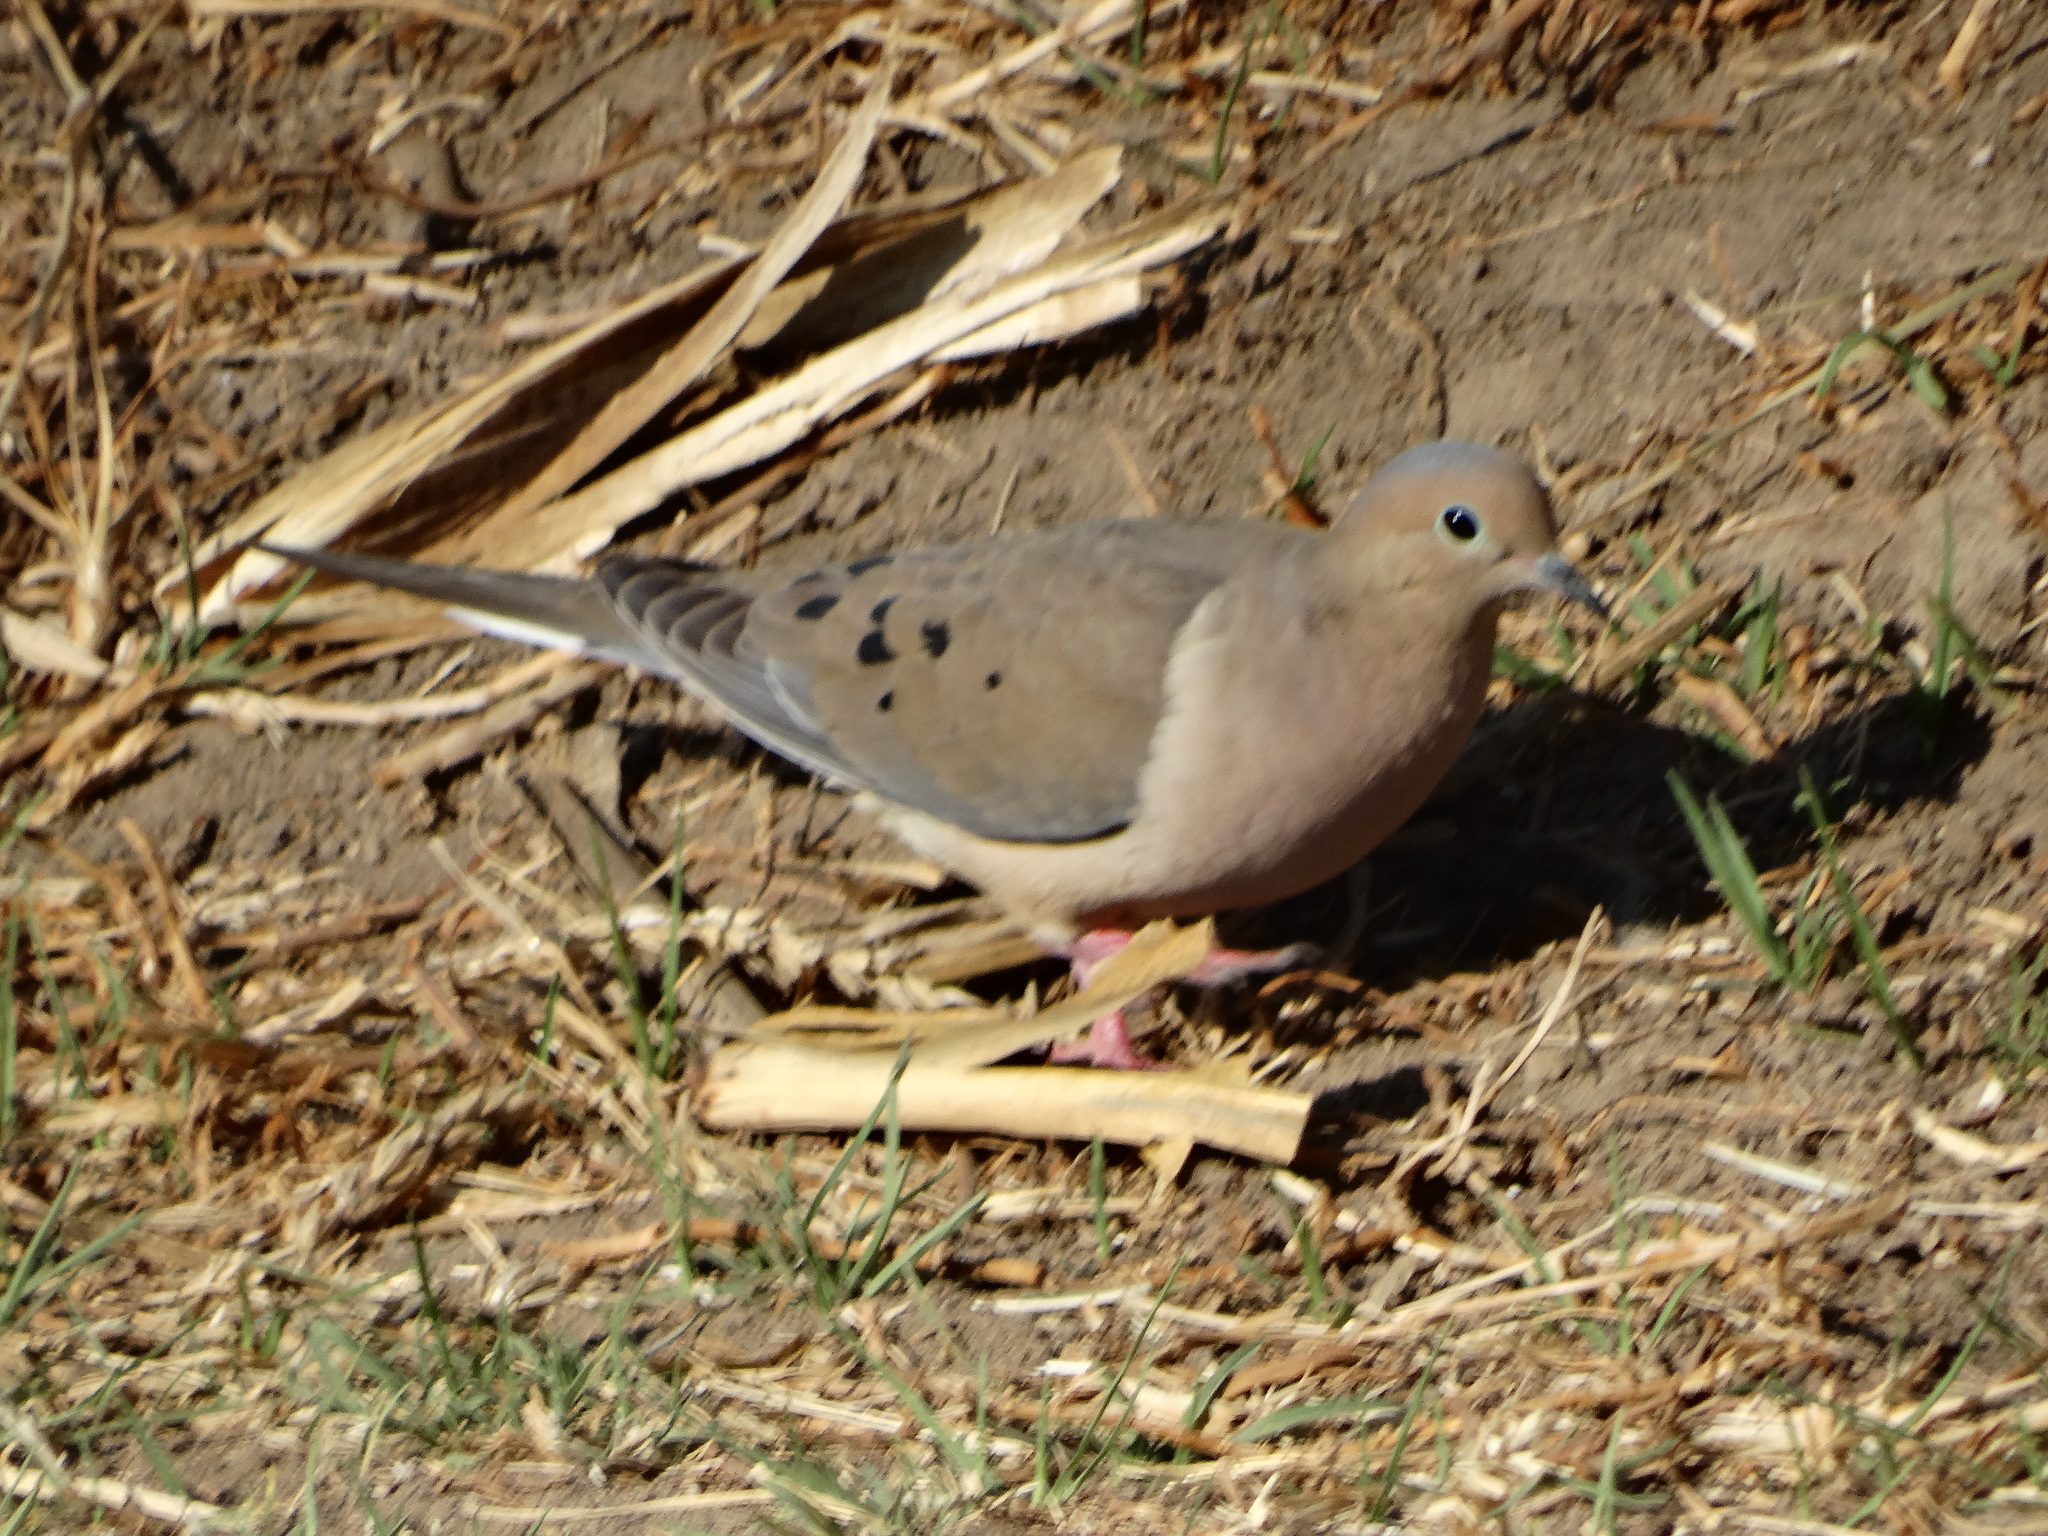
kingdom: Animalia
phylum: Chordata
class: Aves
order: Columbiformes
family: Columbidae
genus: Zenaida
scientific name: Zenaida macroura
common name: Mourning dove
